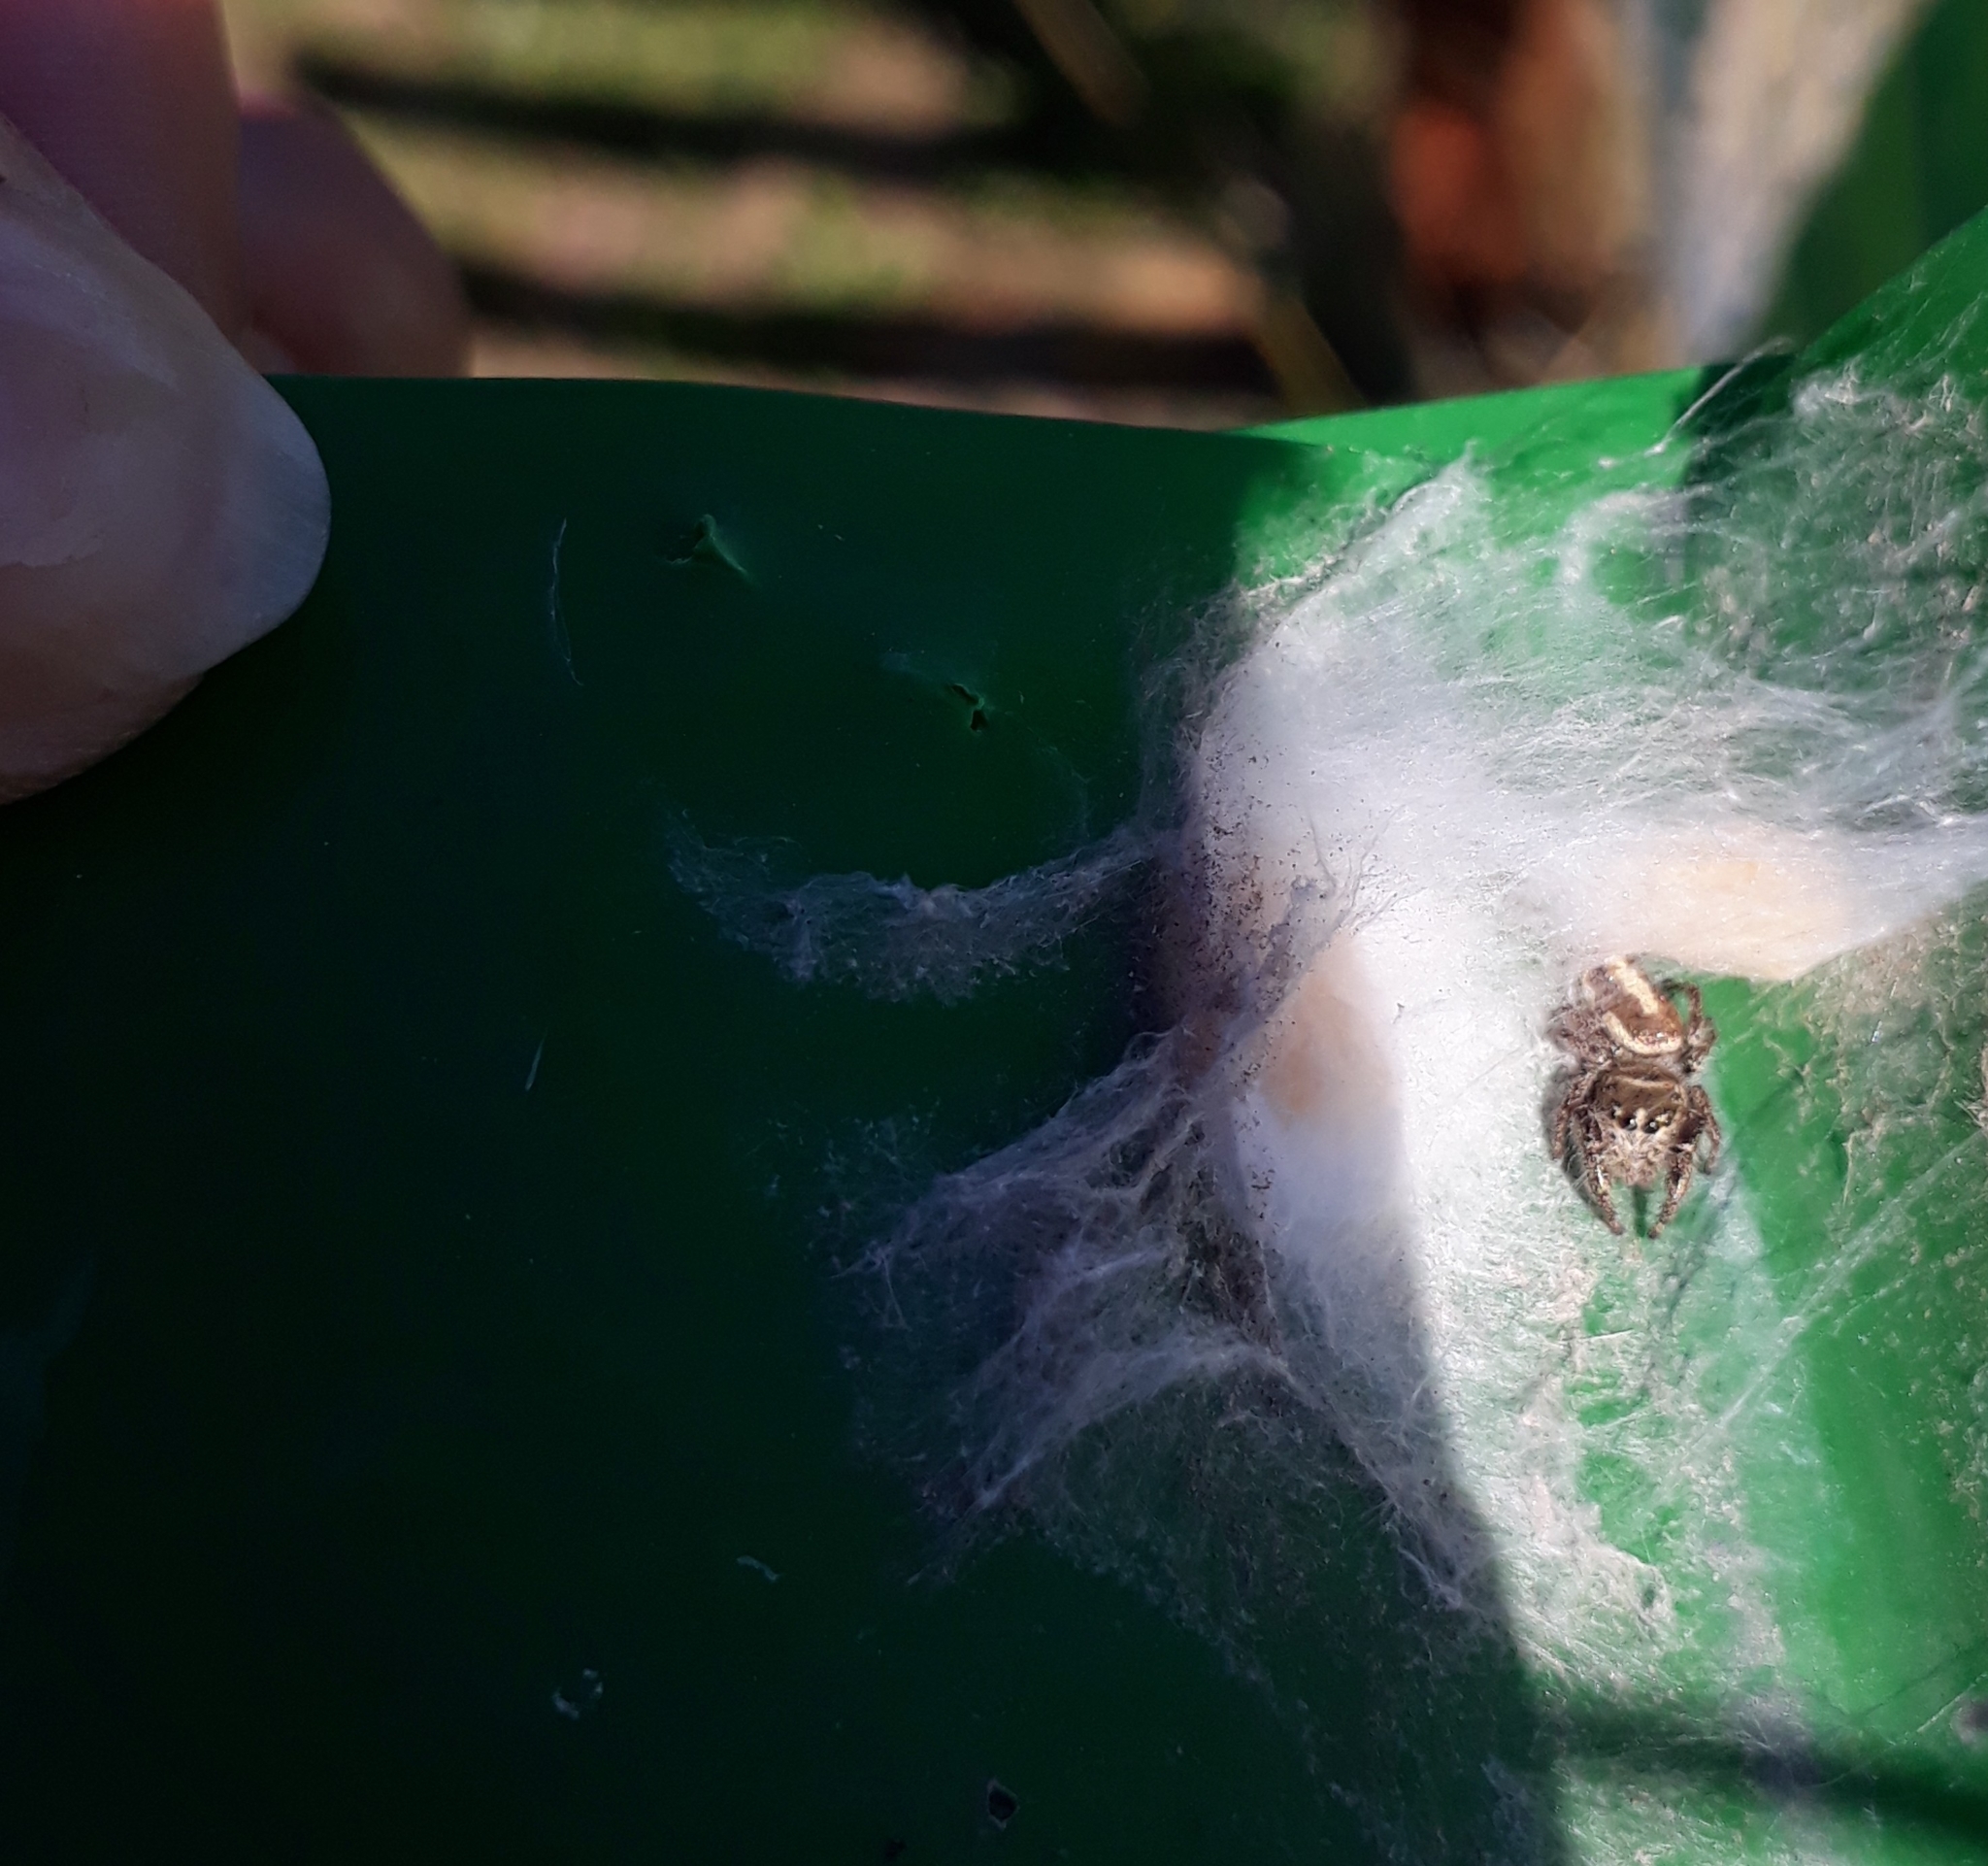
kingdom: Animalia
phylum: Arthropoda
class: Arachnida
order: Araneae
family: Salticidae
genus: Dendryphantes
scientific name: Dendryphantes mordax
